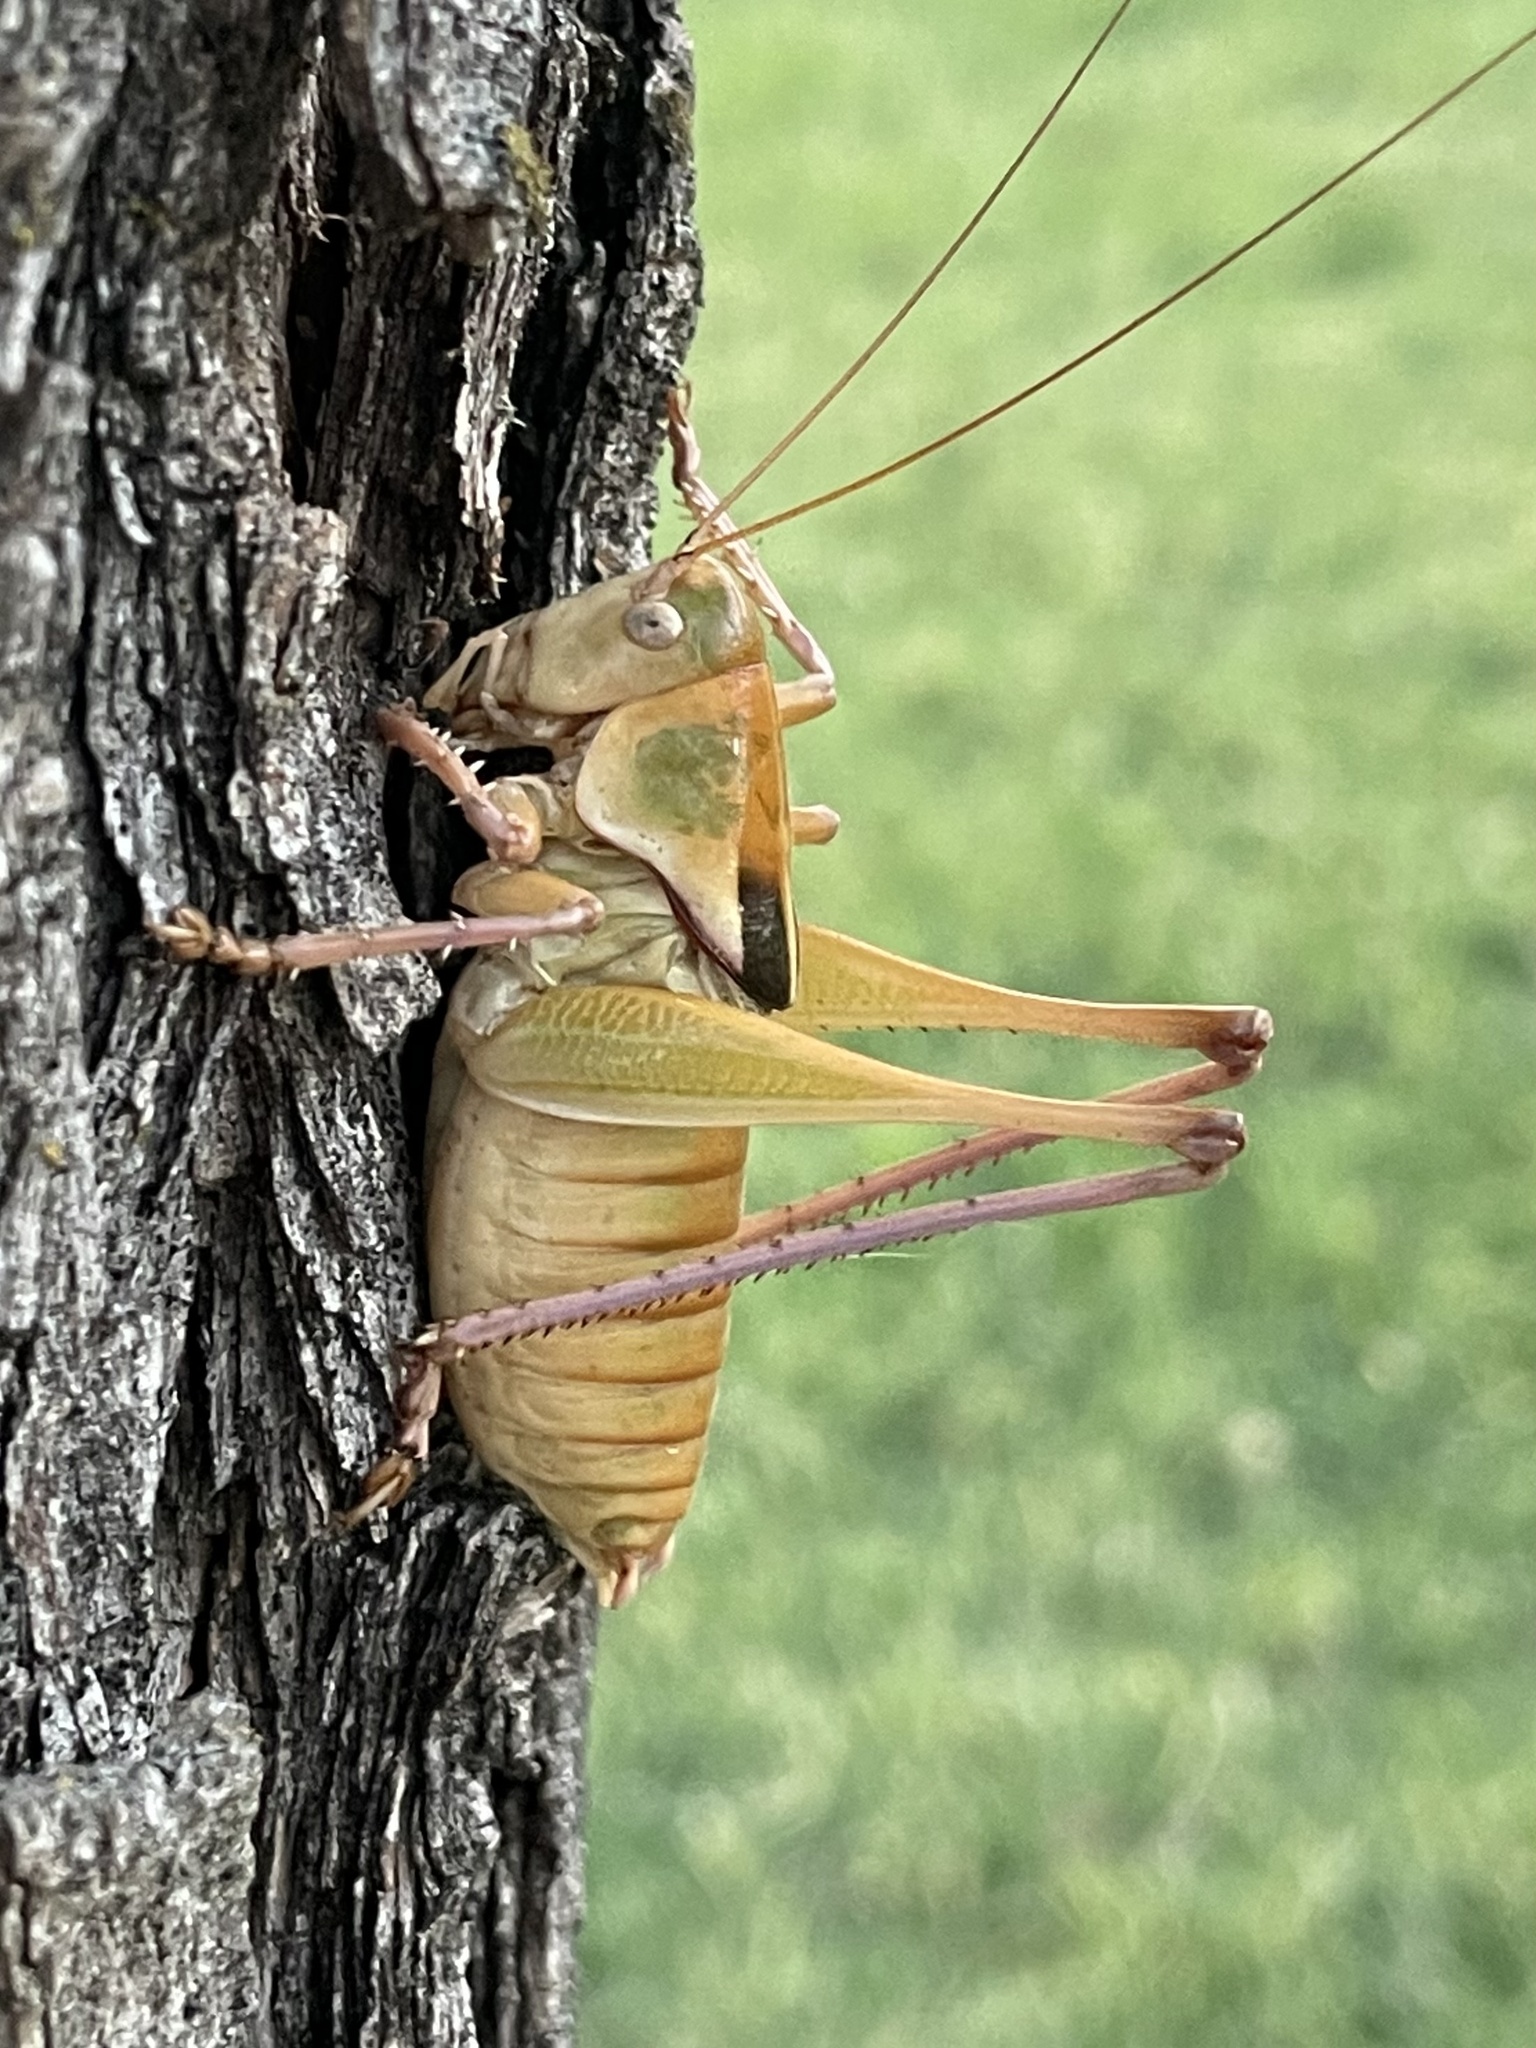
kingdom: Animalia
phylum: Arthropoda
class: Insecta
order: Orthoptera
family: Tettigoniidae
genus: Pediodectes
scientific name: Pediodectes haldemanii
